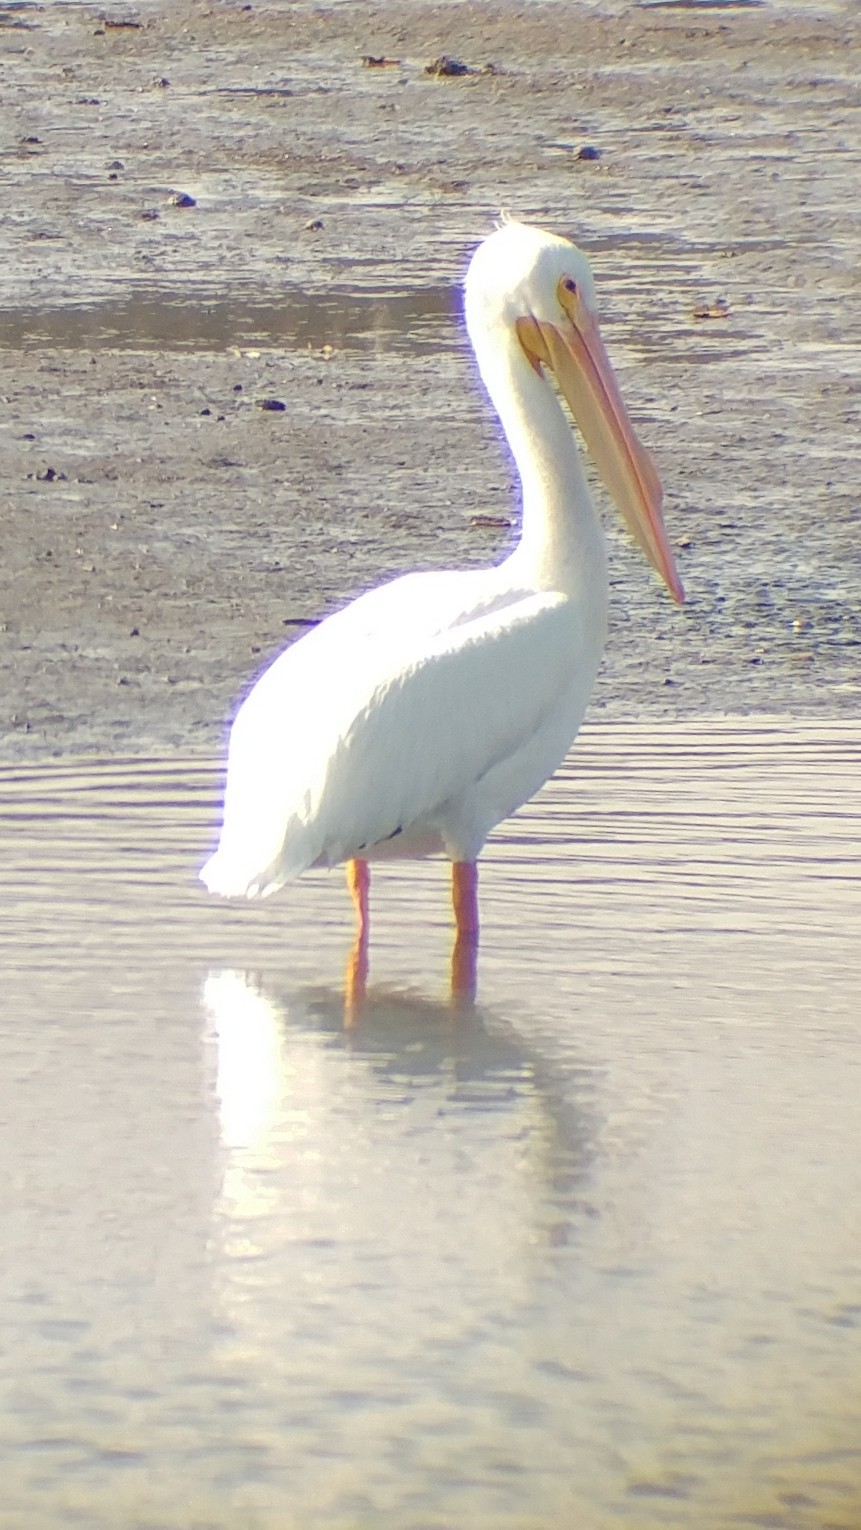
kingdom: Animalia
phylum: Chordata
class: Aves
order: Pelecaniformes
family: Pelecanidae
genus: Pelecanus
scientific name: Pelecanus erythrorhynchos
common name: American white pelican
